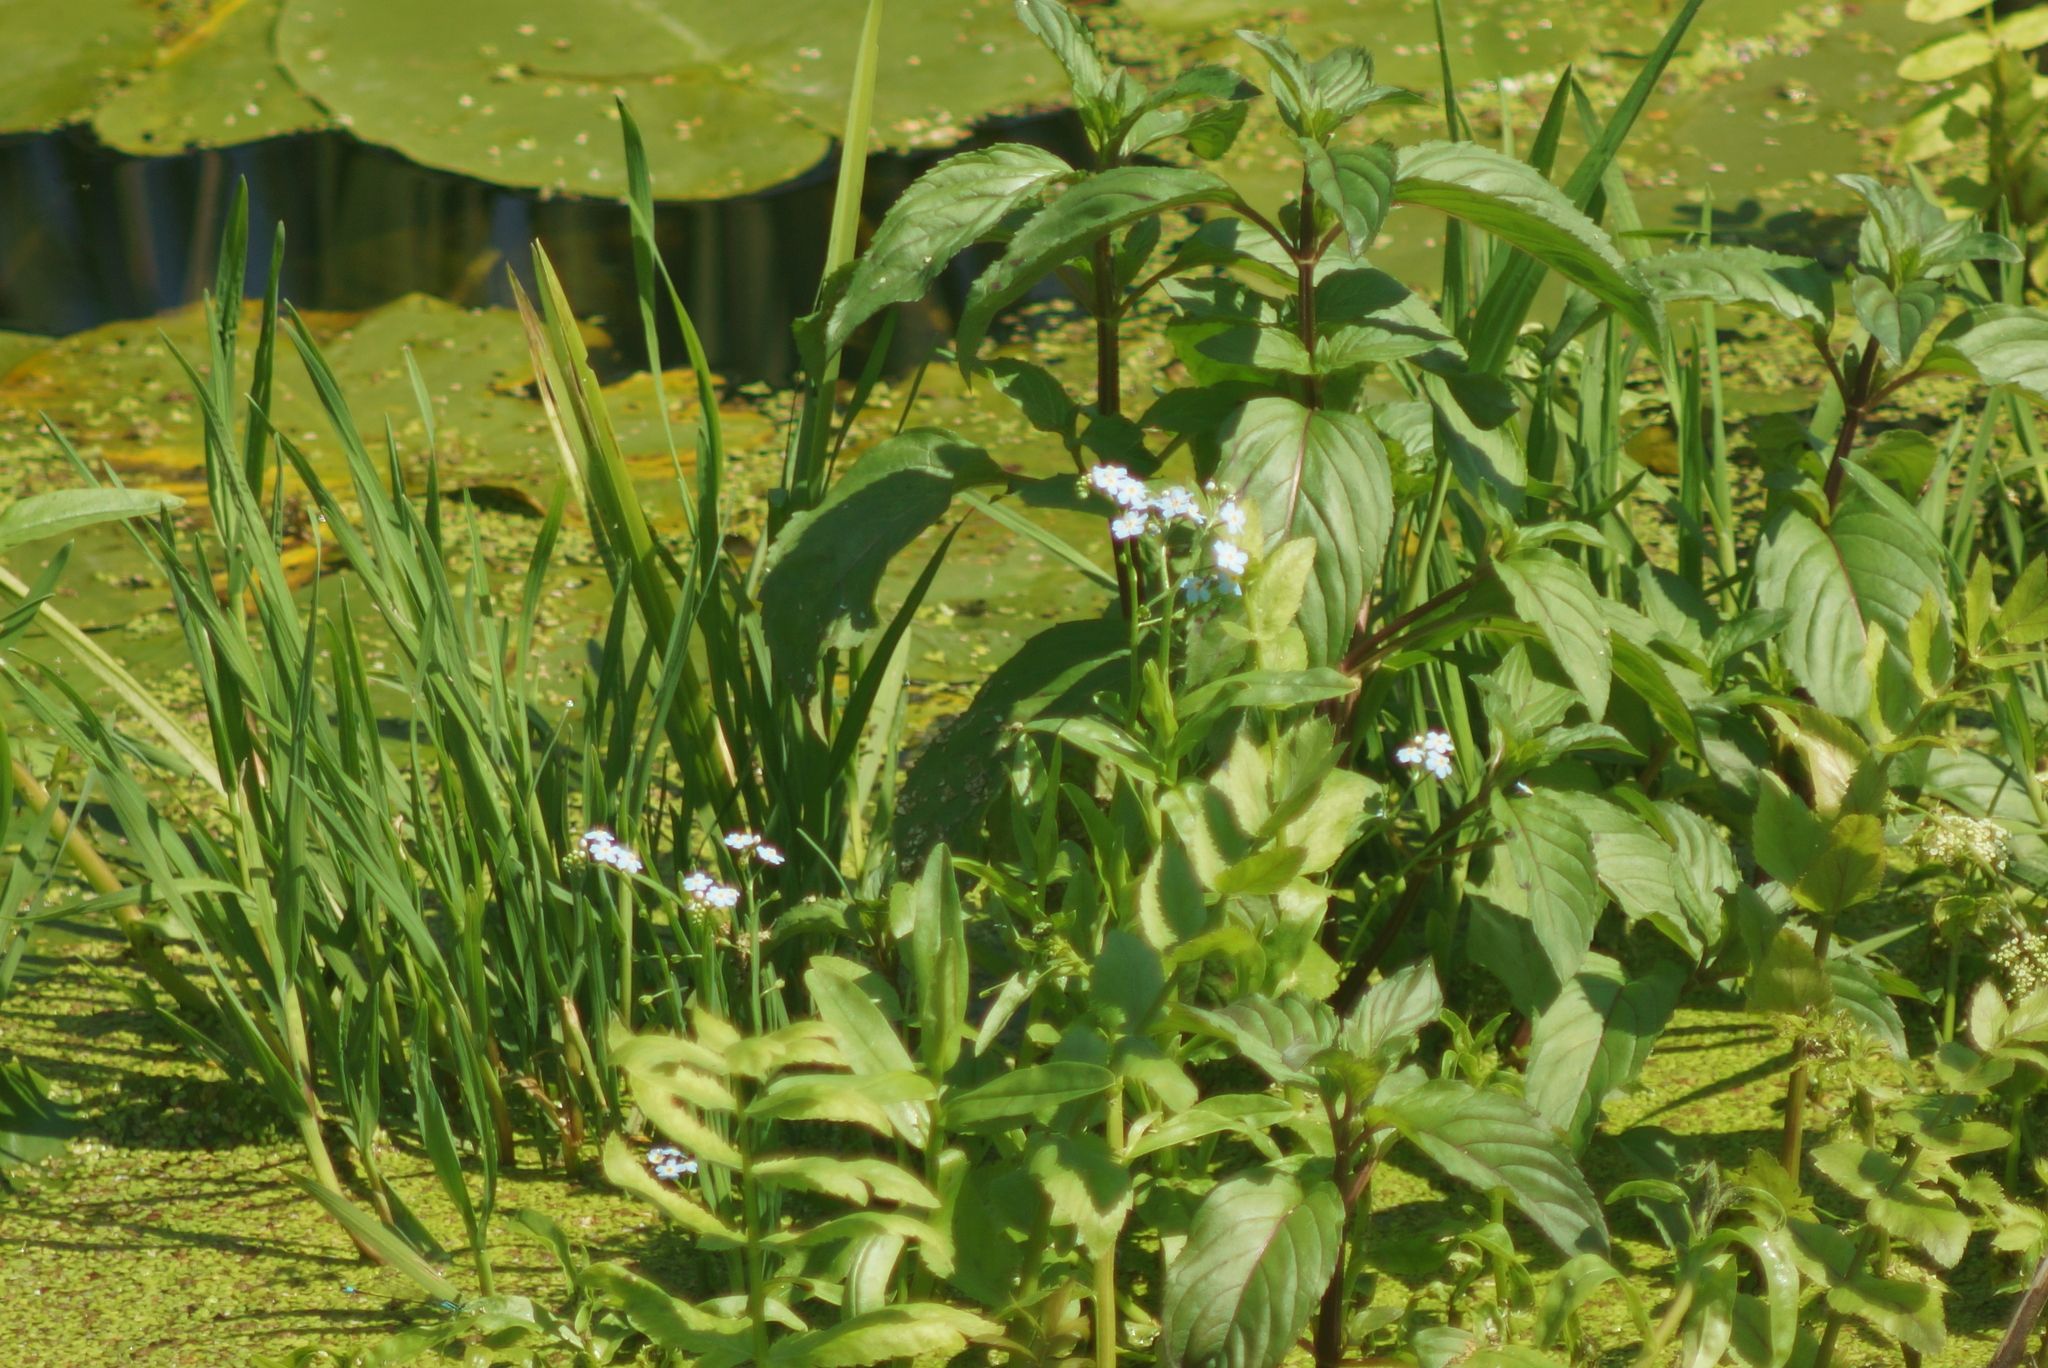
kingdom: Plantae
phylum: Tracheophyta
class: Magnoliopsida
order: Boraginales
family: Boraginaceae
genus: Myosotis
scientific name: Myosotis scorpioides
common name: Water forget-me-not
